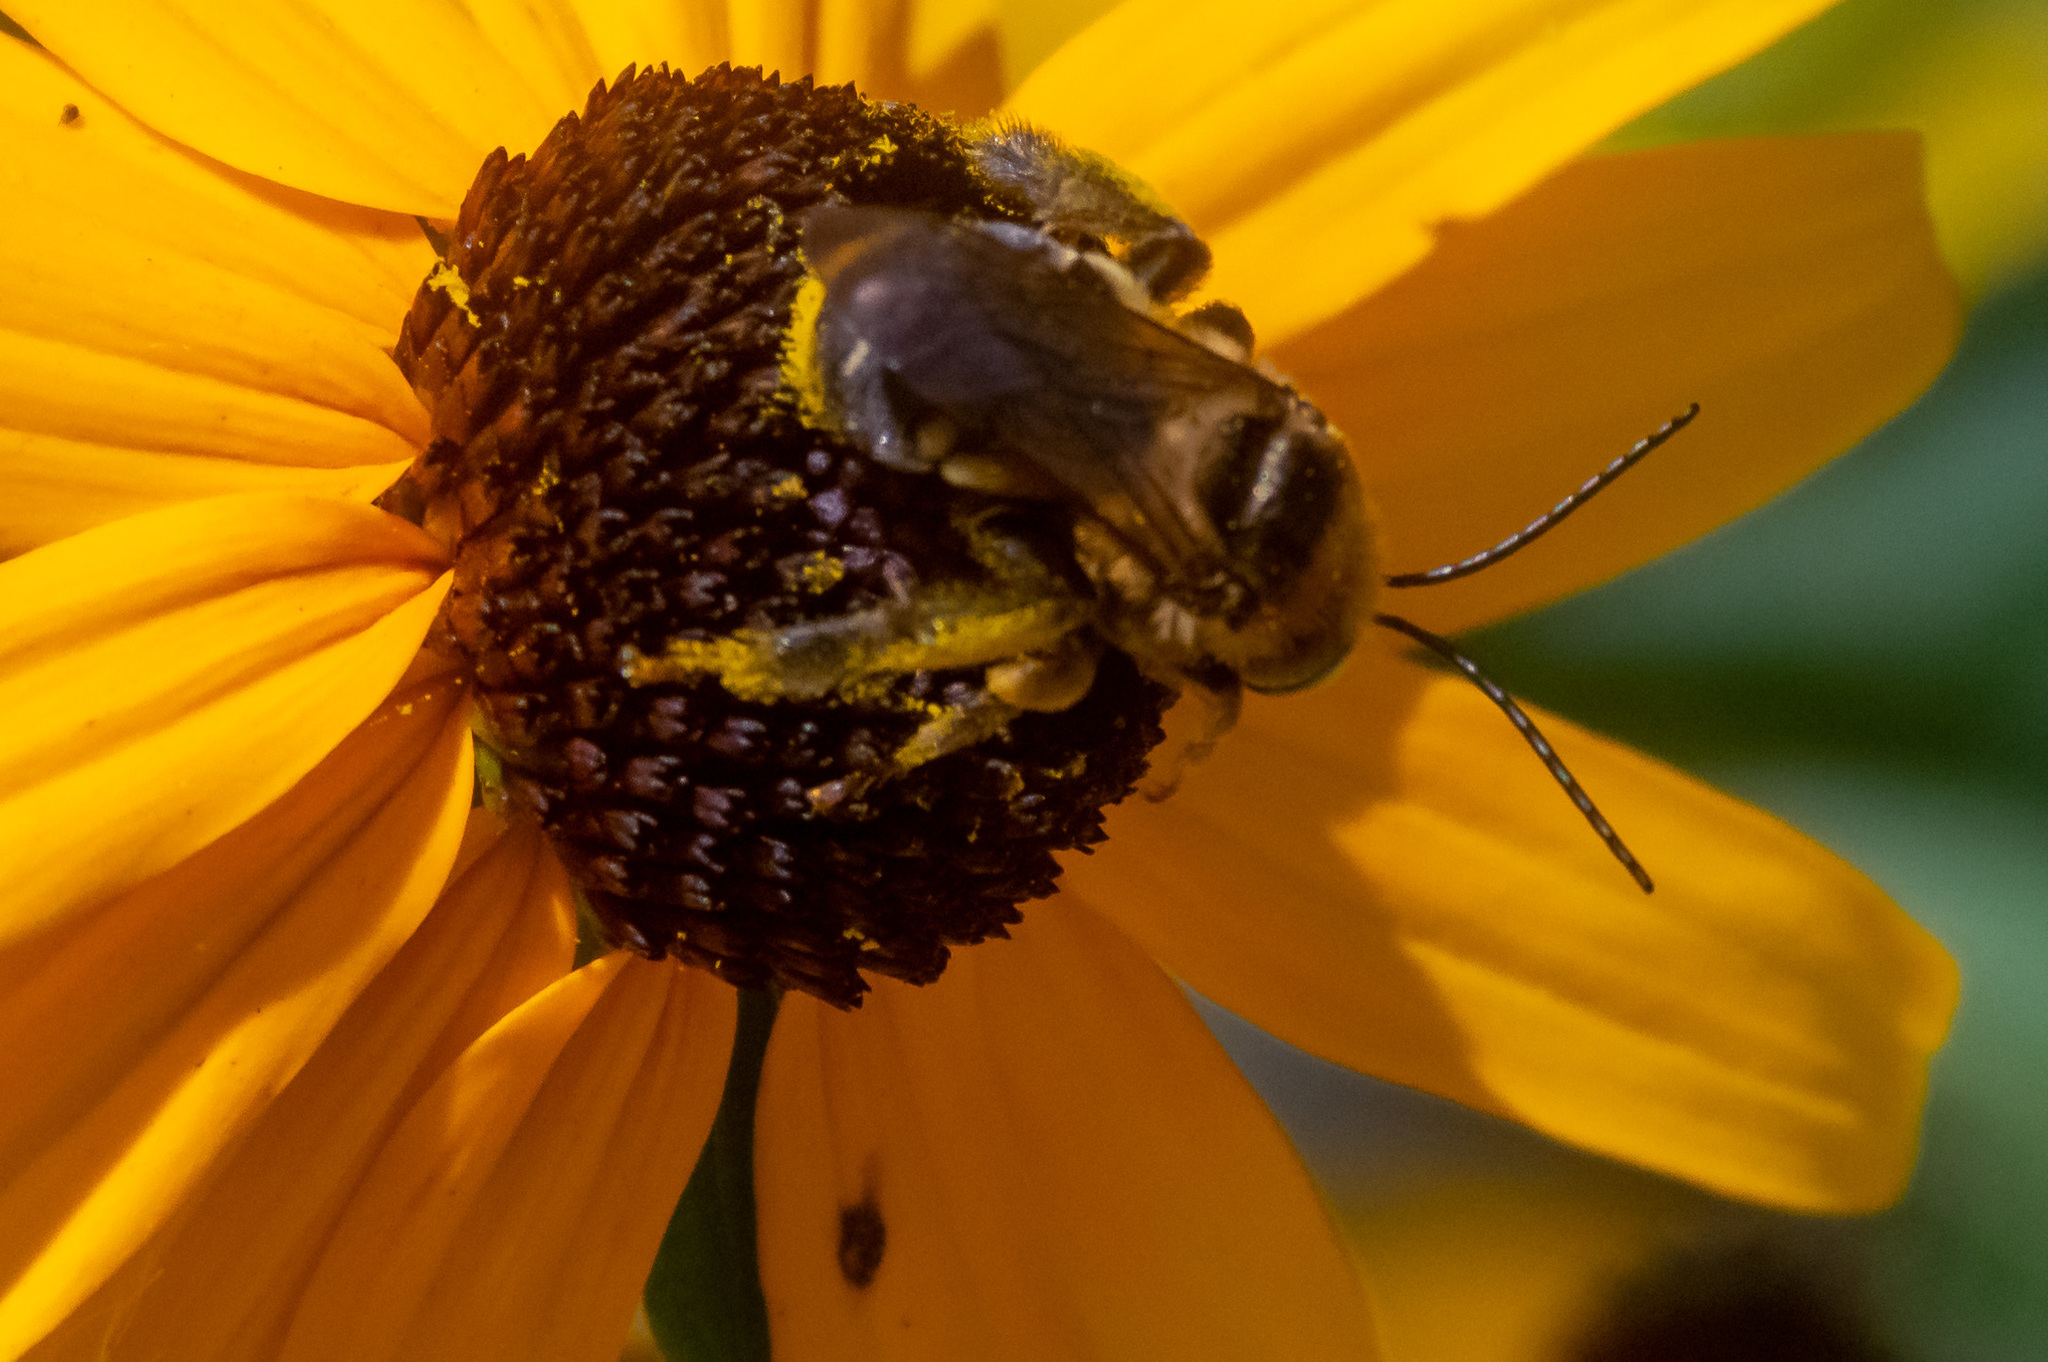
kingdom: Animalia
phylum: Arthropoda
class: Insecta
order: Hymenoptera
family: Apidae
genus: Svastra
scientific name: Svastra obliqua
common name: Oblique longhorn
